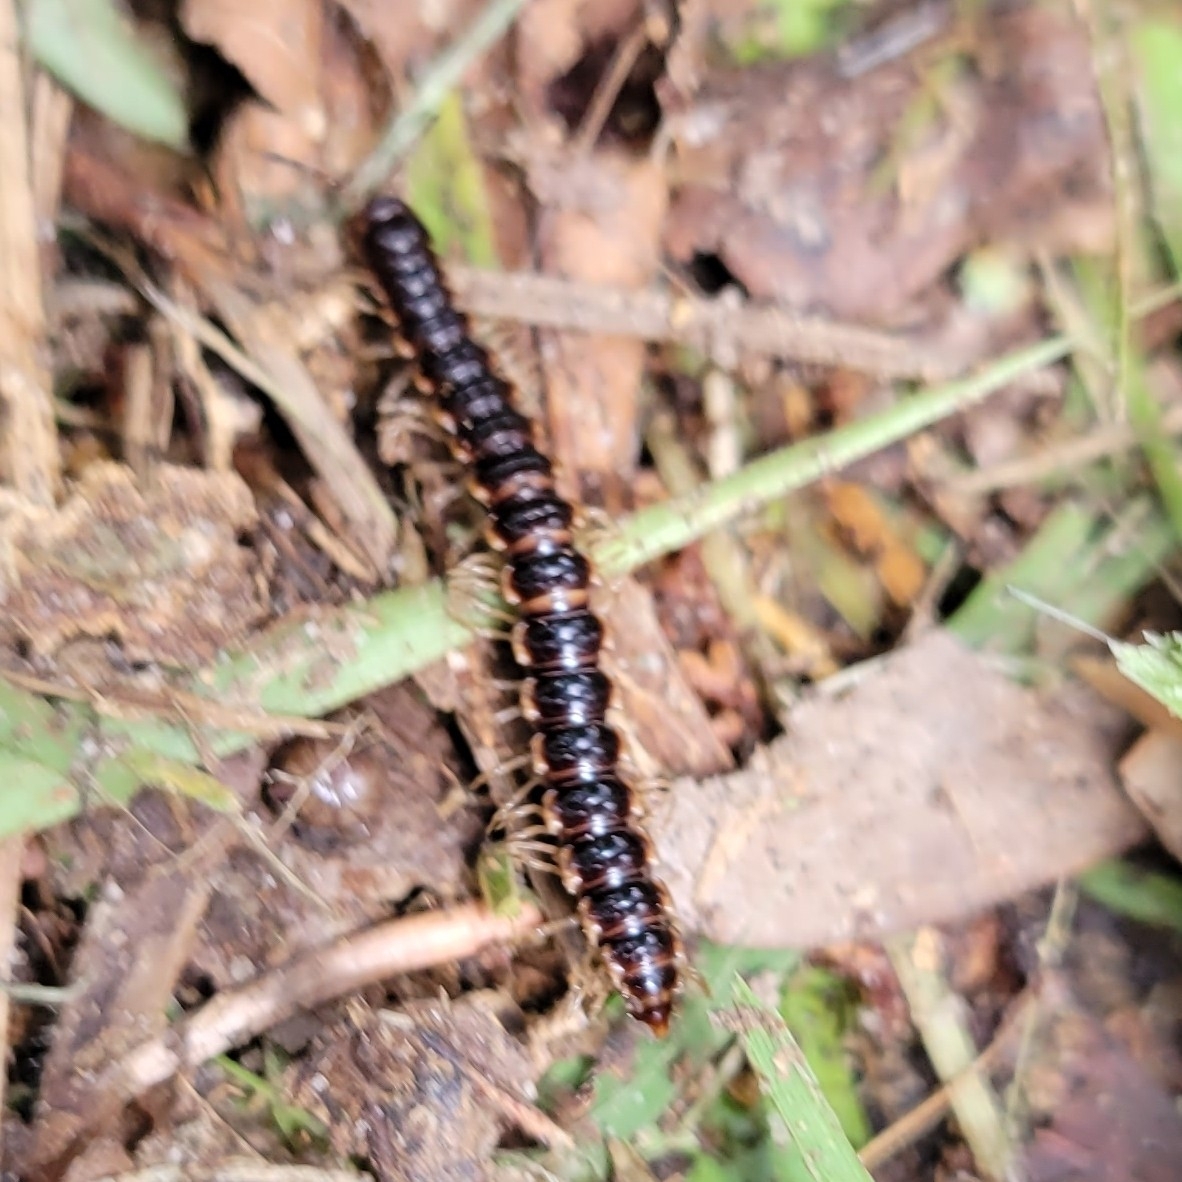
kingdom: Animalia
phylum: Arthropoda
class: Diplopoda
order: Polydesmida
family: Paradoxosomatidae
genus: Oxidus
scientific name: Oxidus gracilis
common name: Greenhouse millipede
